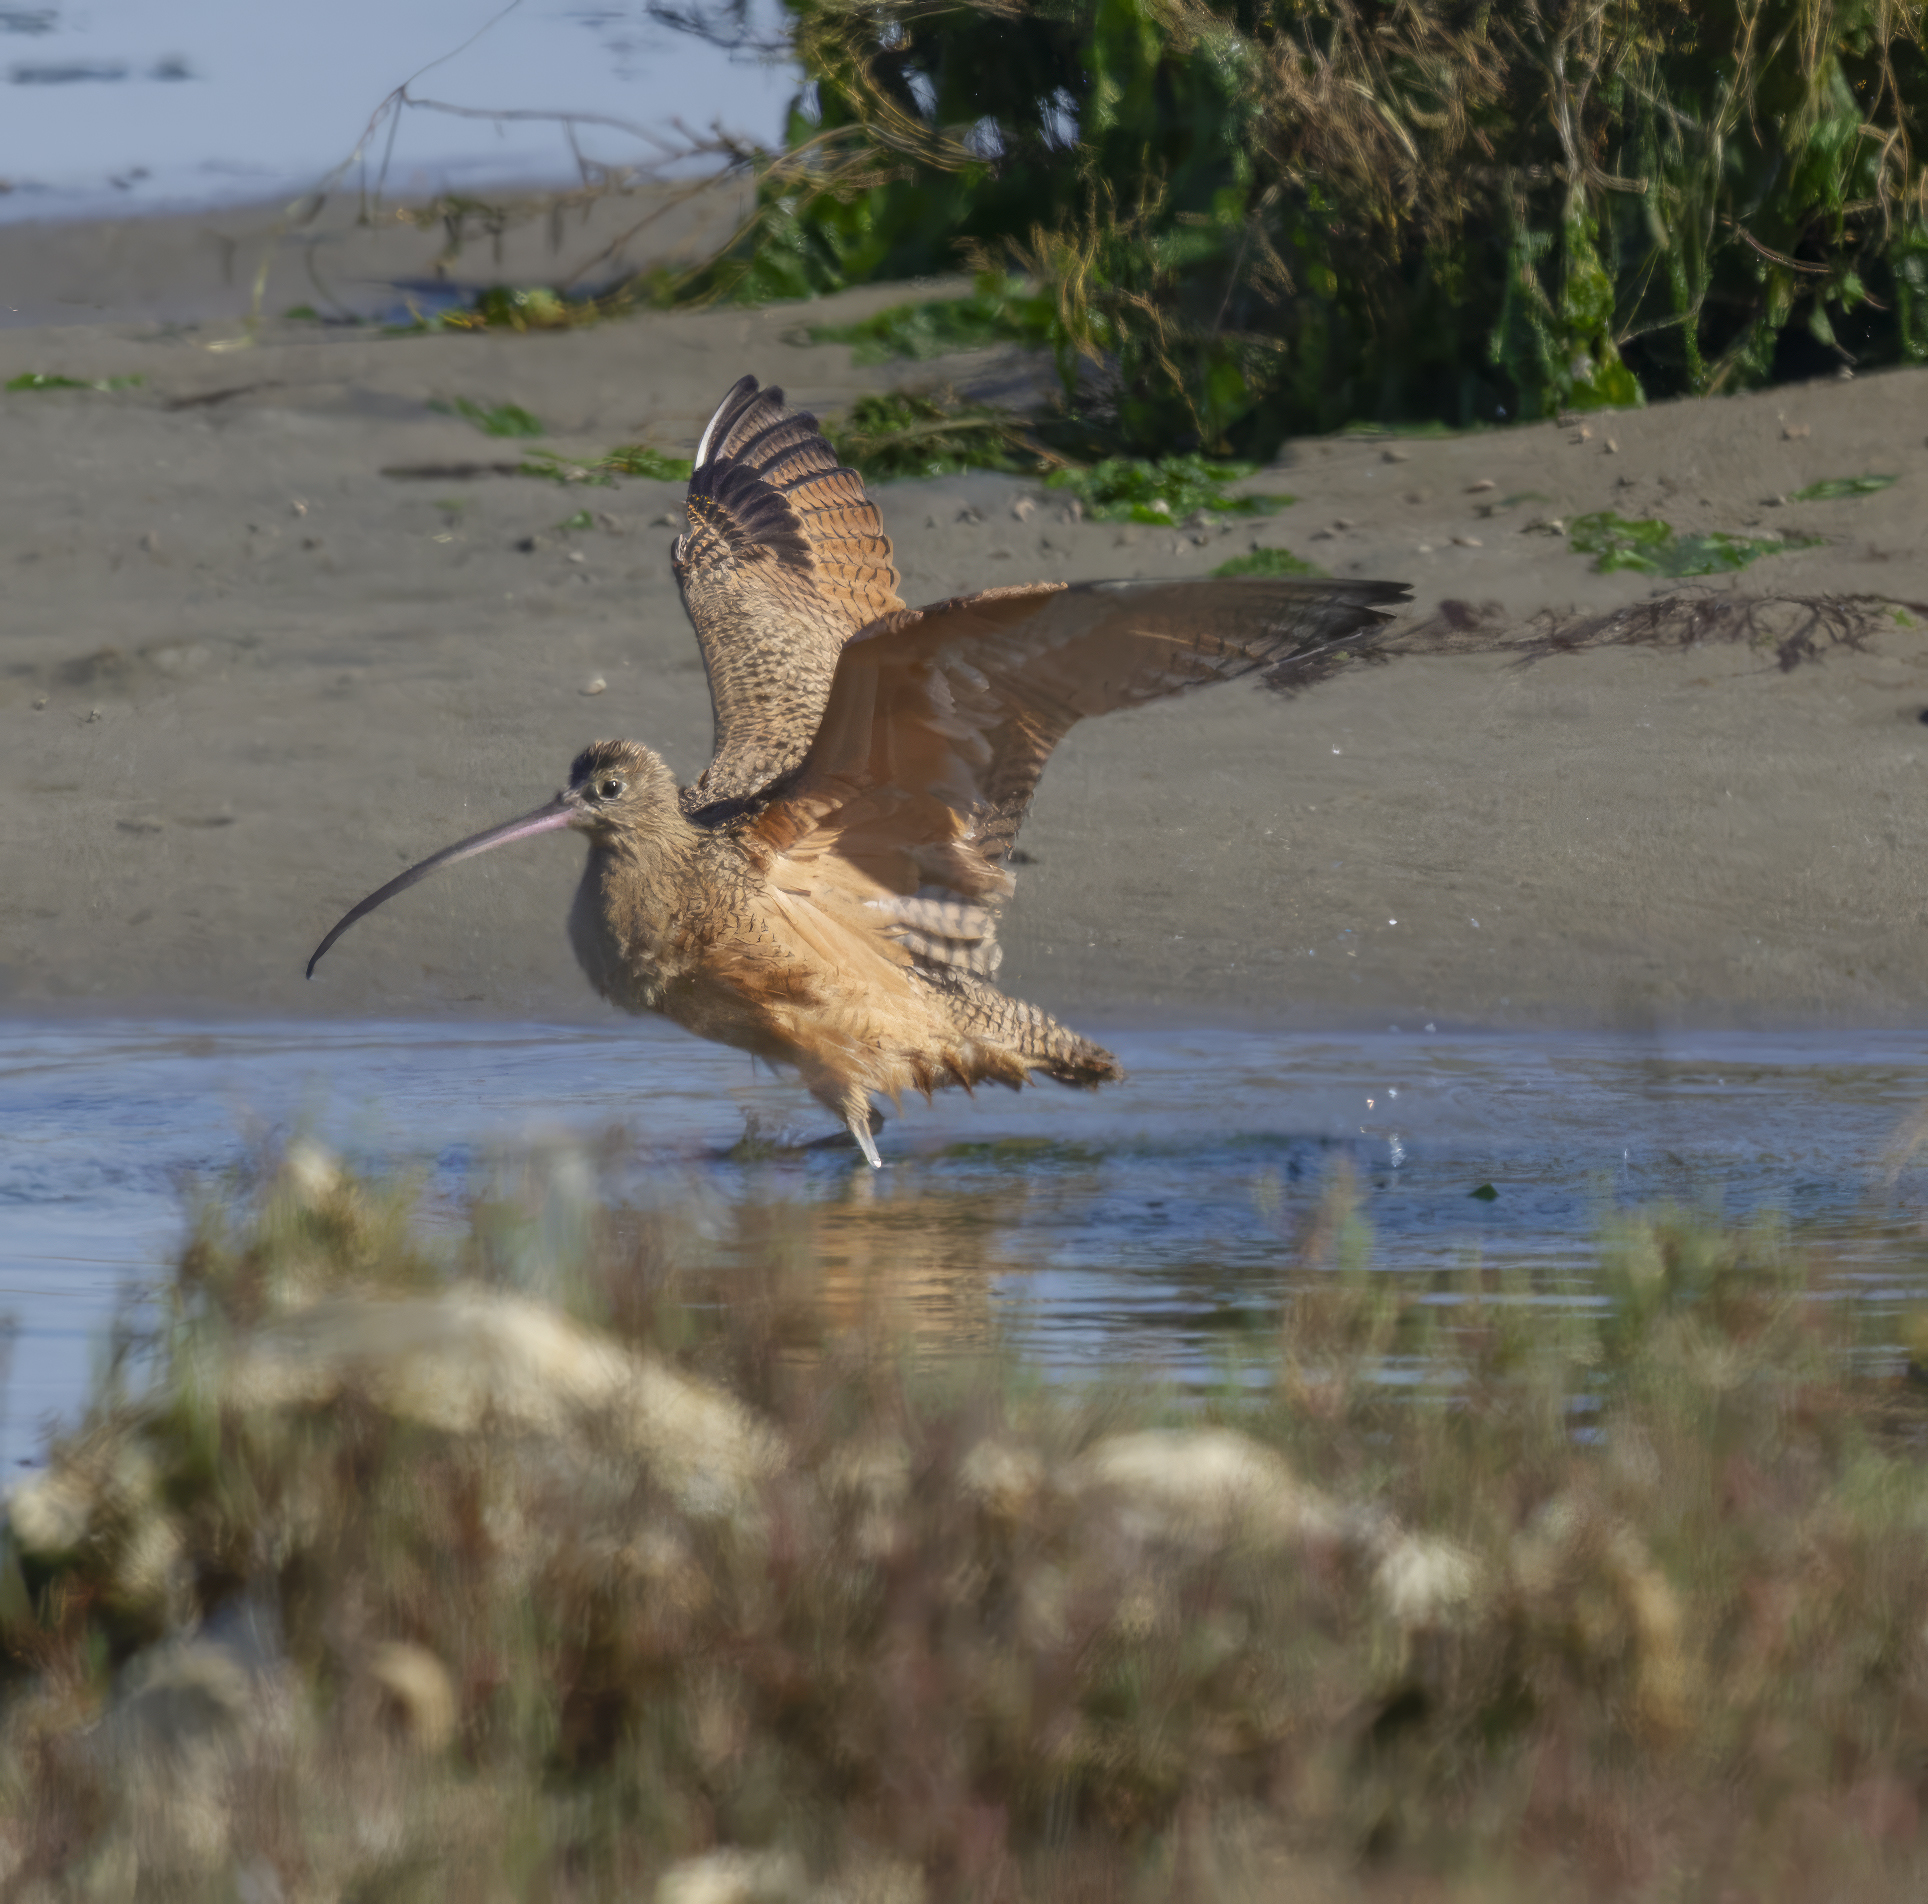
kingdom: Animalia
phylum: Chordata
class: Aves
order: Charadriiformes
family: Scolopacidae
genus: Numenius
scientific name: Numenius americanus
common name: Long-billed curlew
